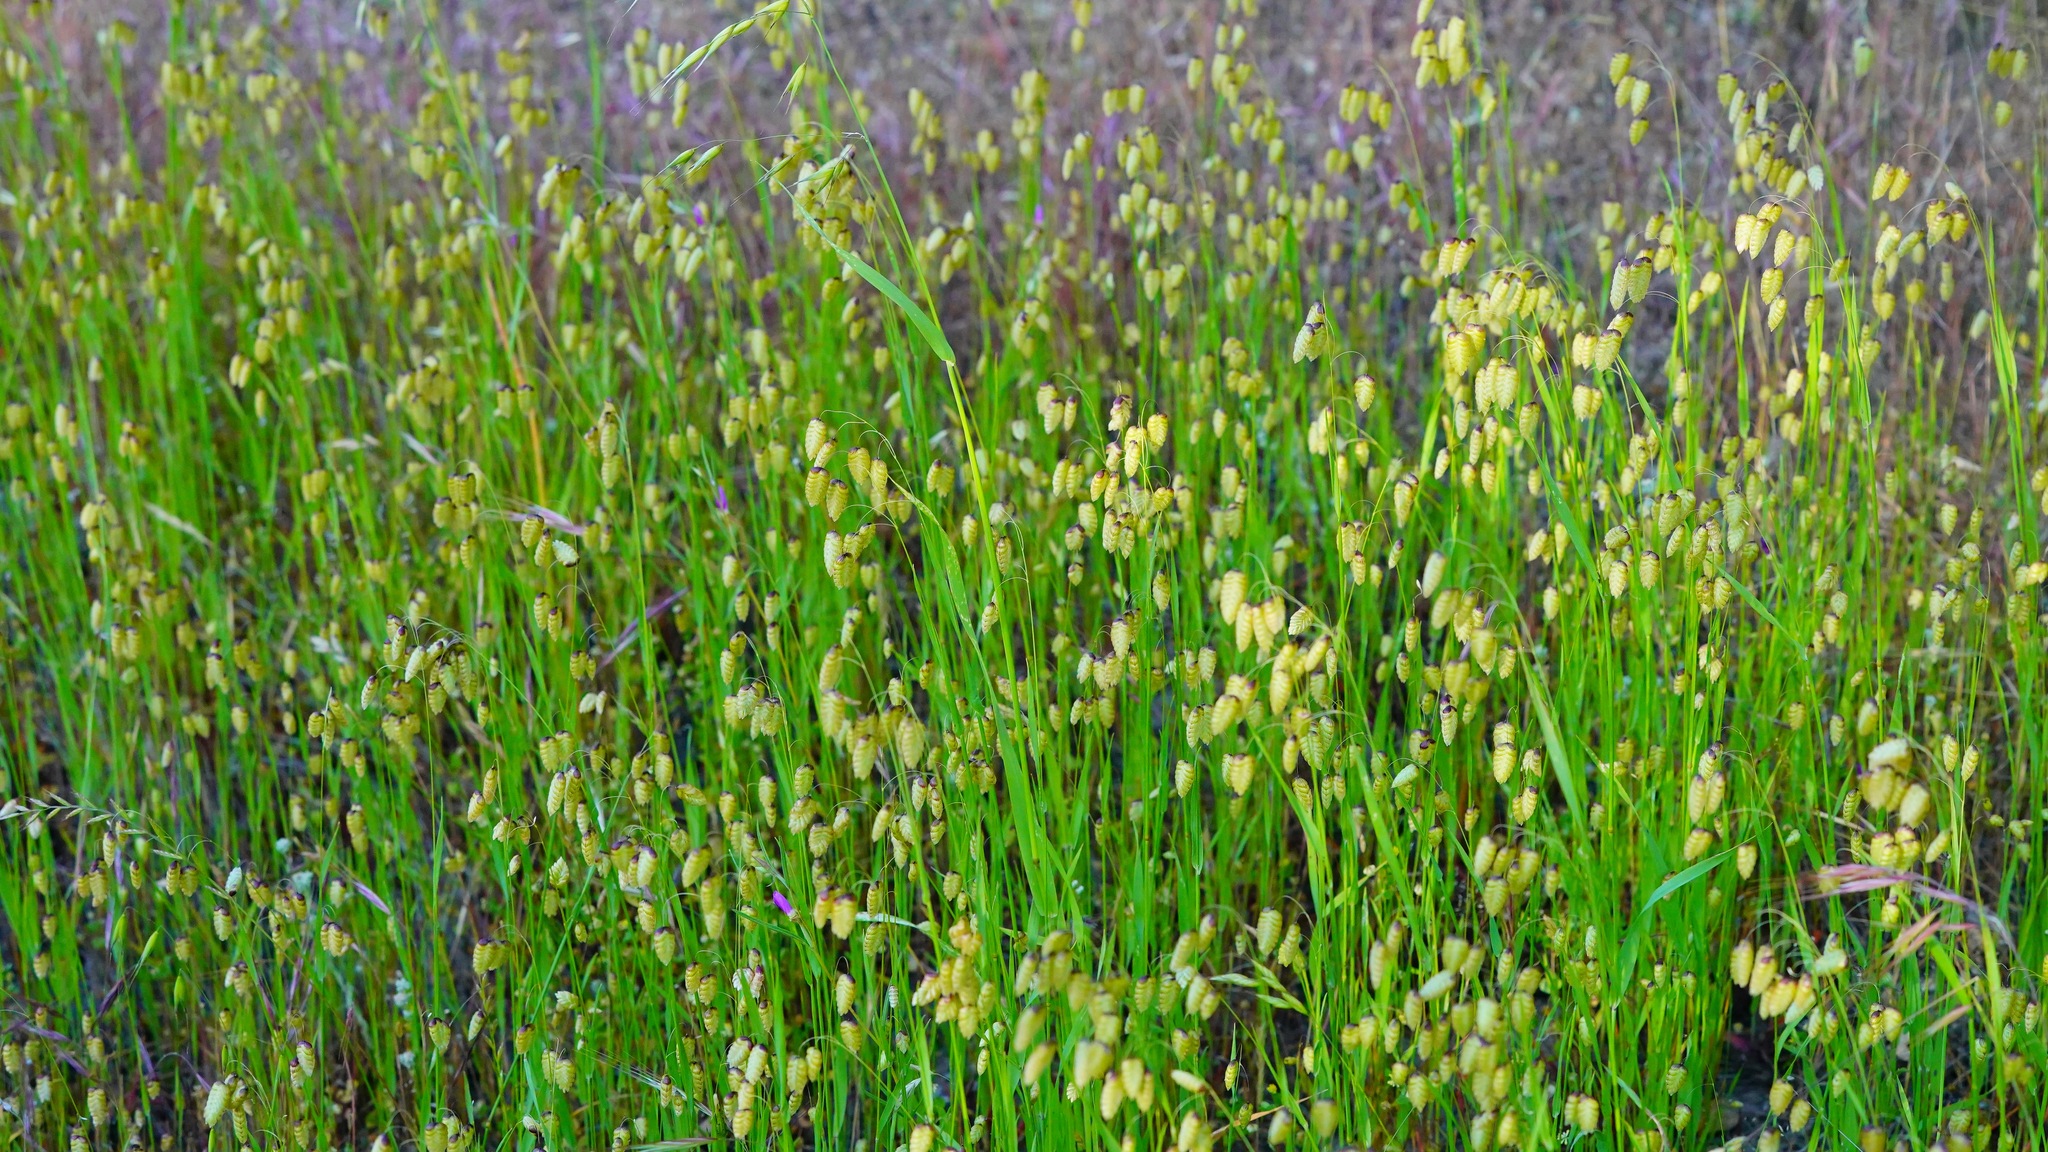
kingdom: Plantae
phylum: Tracheophyta
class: Liliopsida
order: Poales
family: Poaceae
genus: Briza
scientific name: Briza maxima
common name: Big quakinggrass
